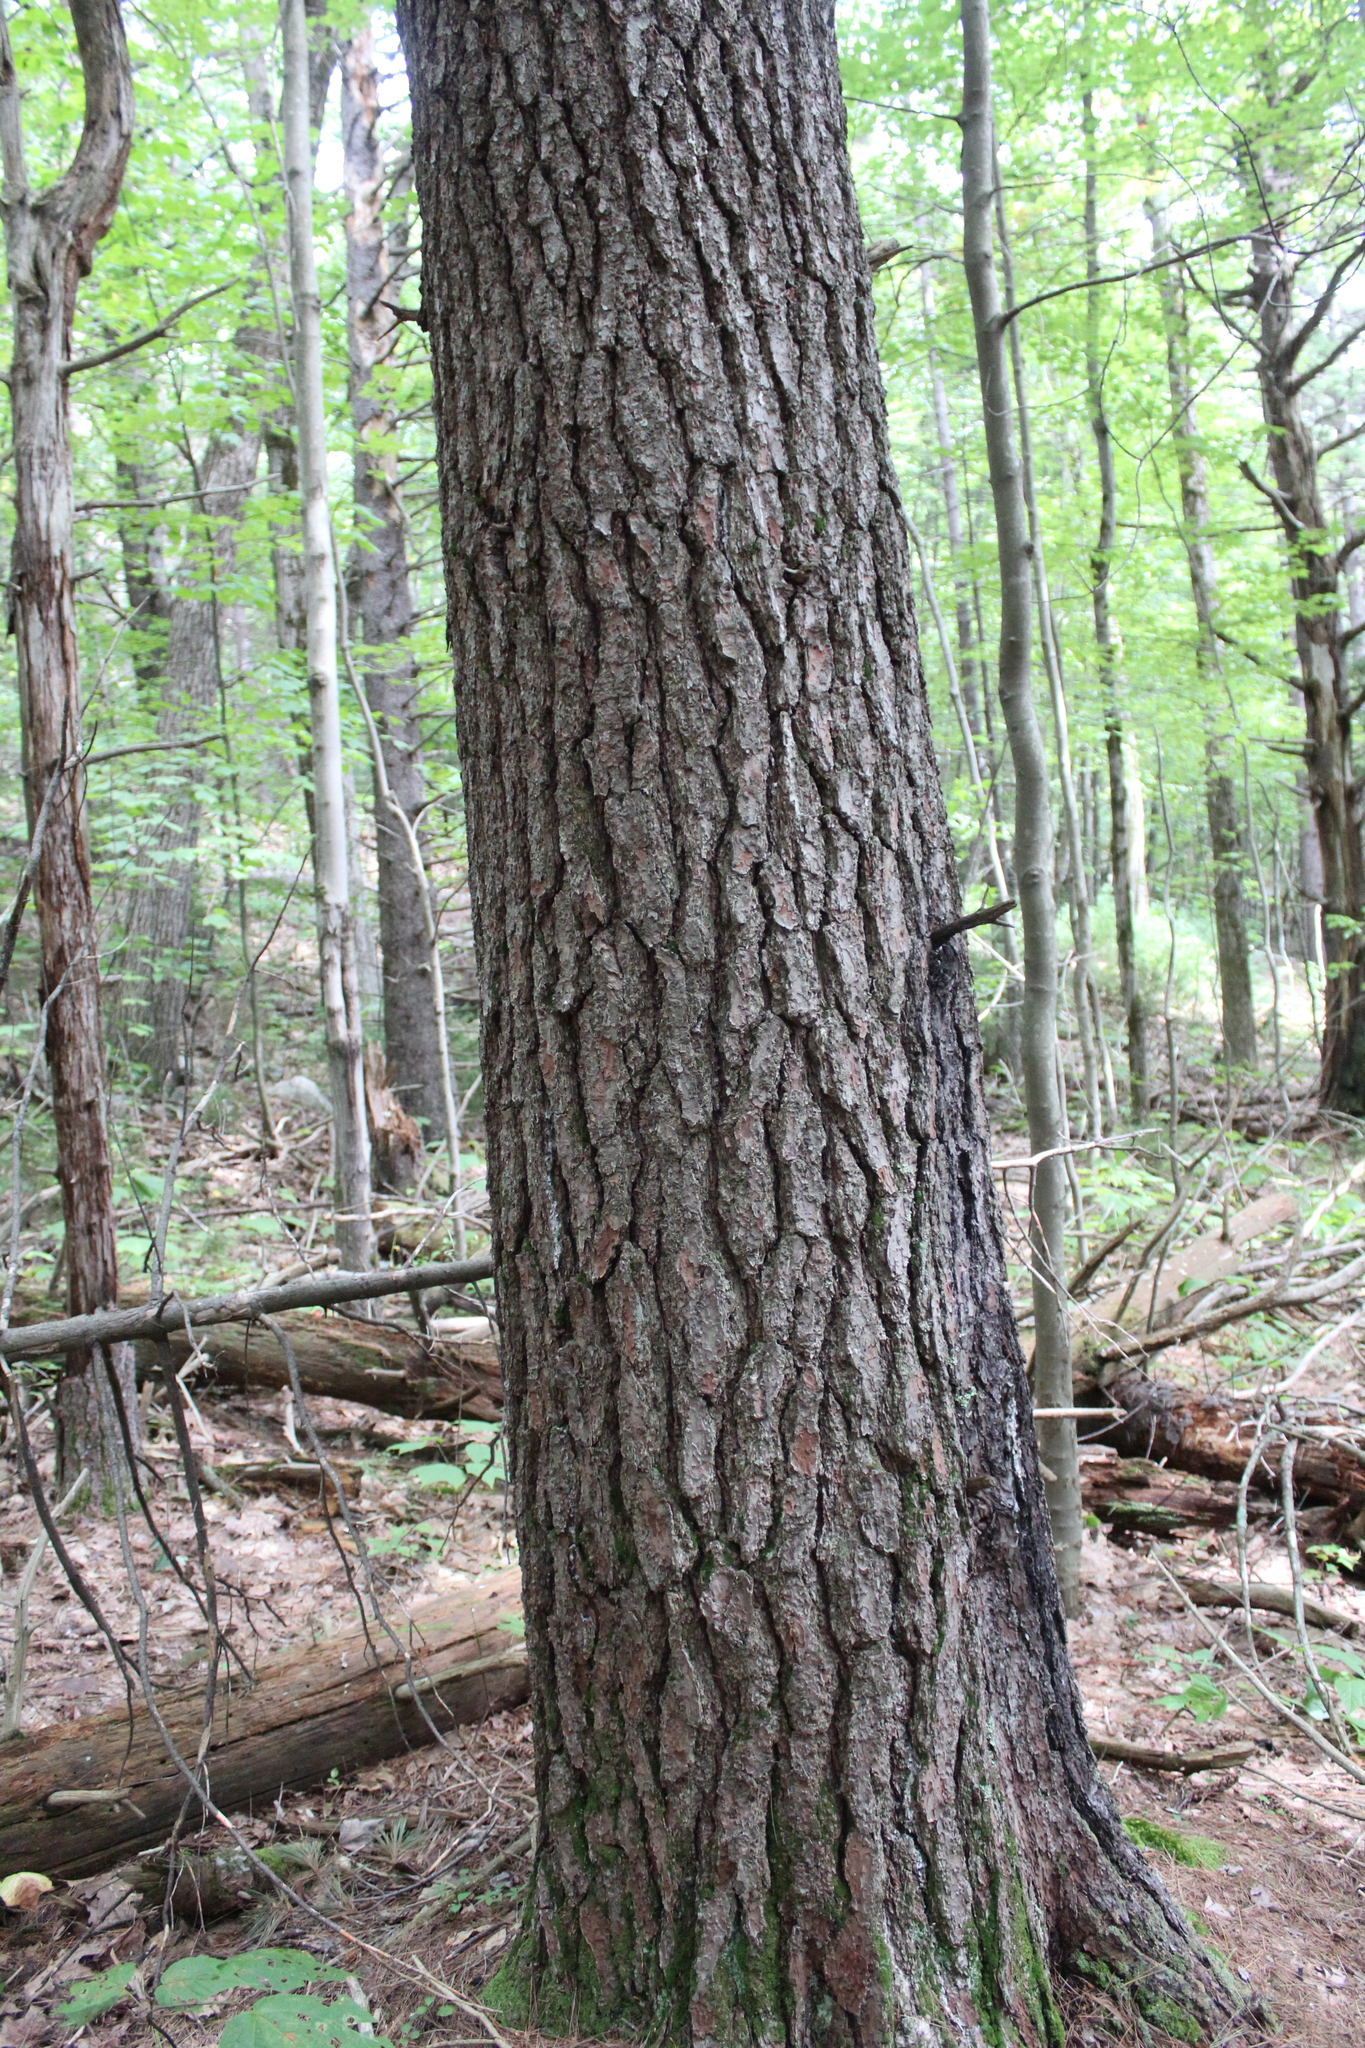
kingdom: Plantae
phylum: Tracheophyta
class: Pinopsida
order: Pinales
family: Pinaceae
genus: Pinus
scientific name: Pinus strobus
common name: Weymouth pine
